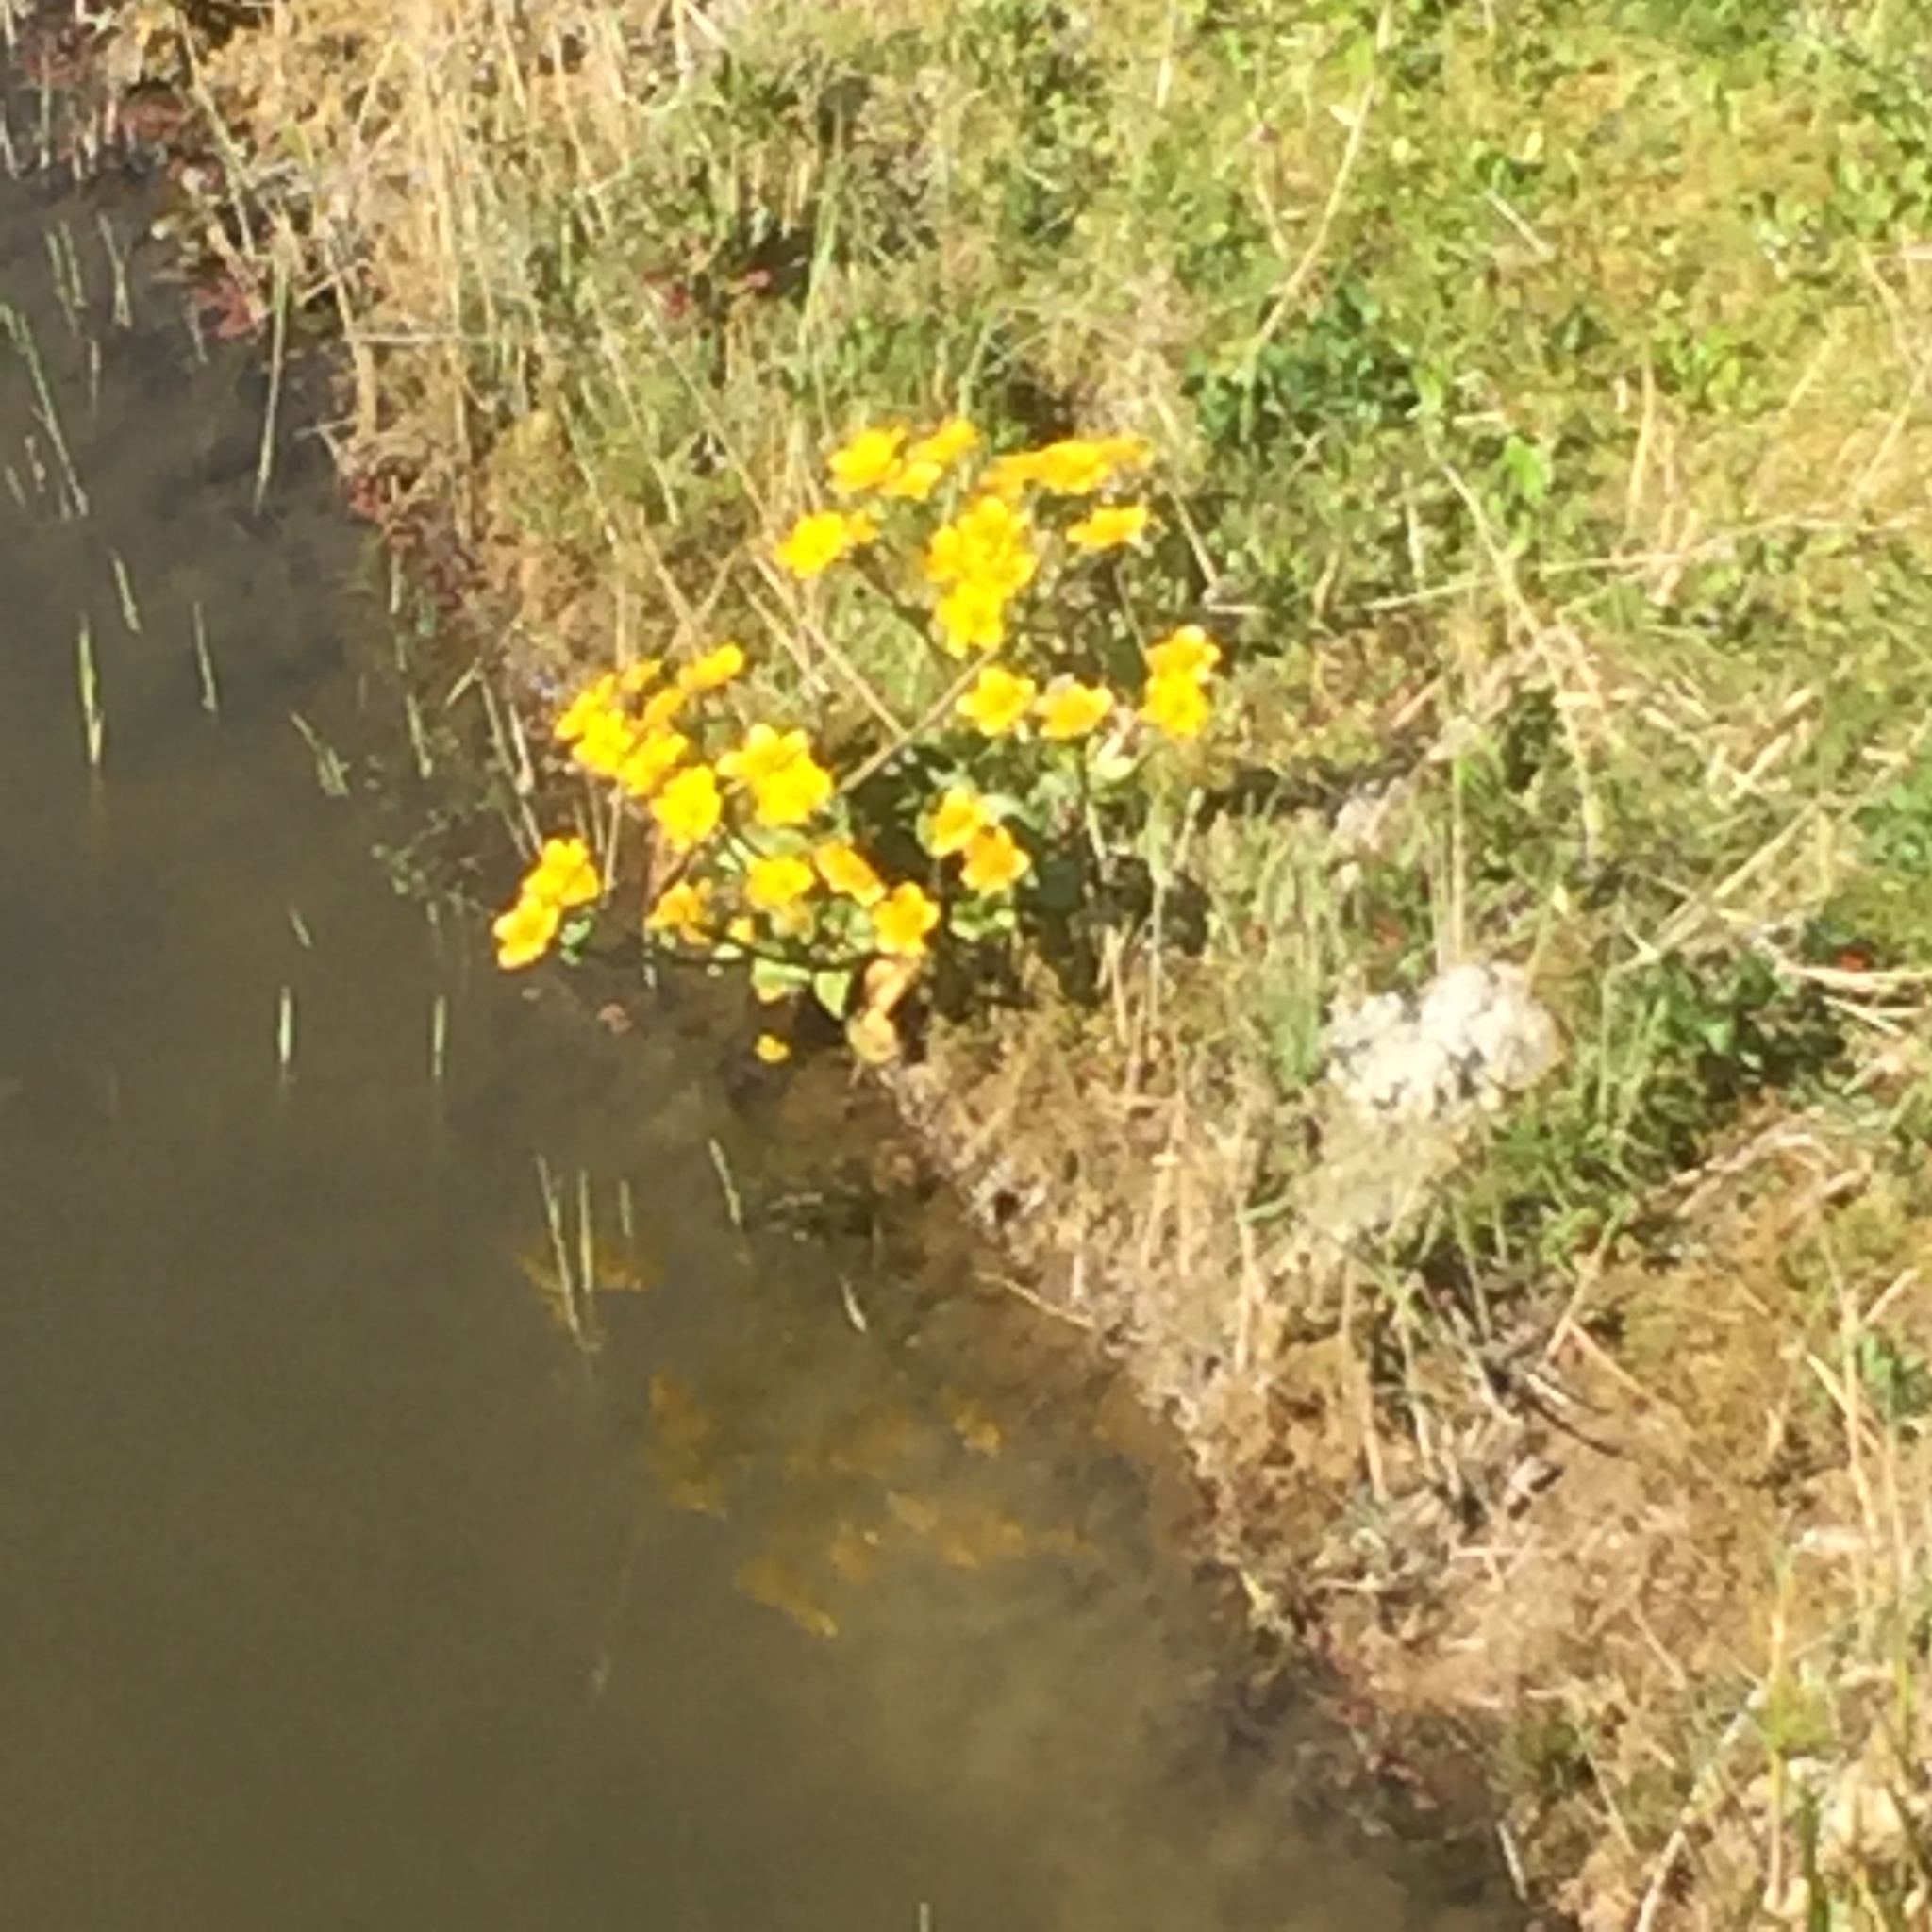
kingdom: Plantae
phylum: Tracheophyta
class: Magnoliopsida
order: Ranunculales
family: Ranunculaceae
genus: Caltha
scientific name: Caltha palustris
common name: Marsh marigold
